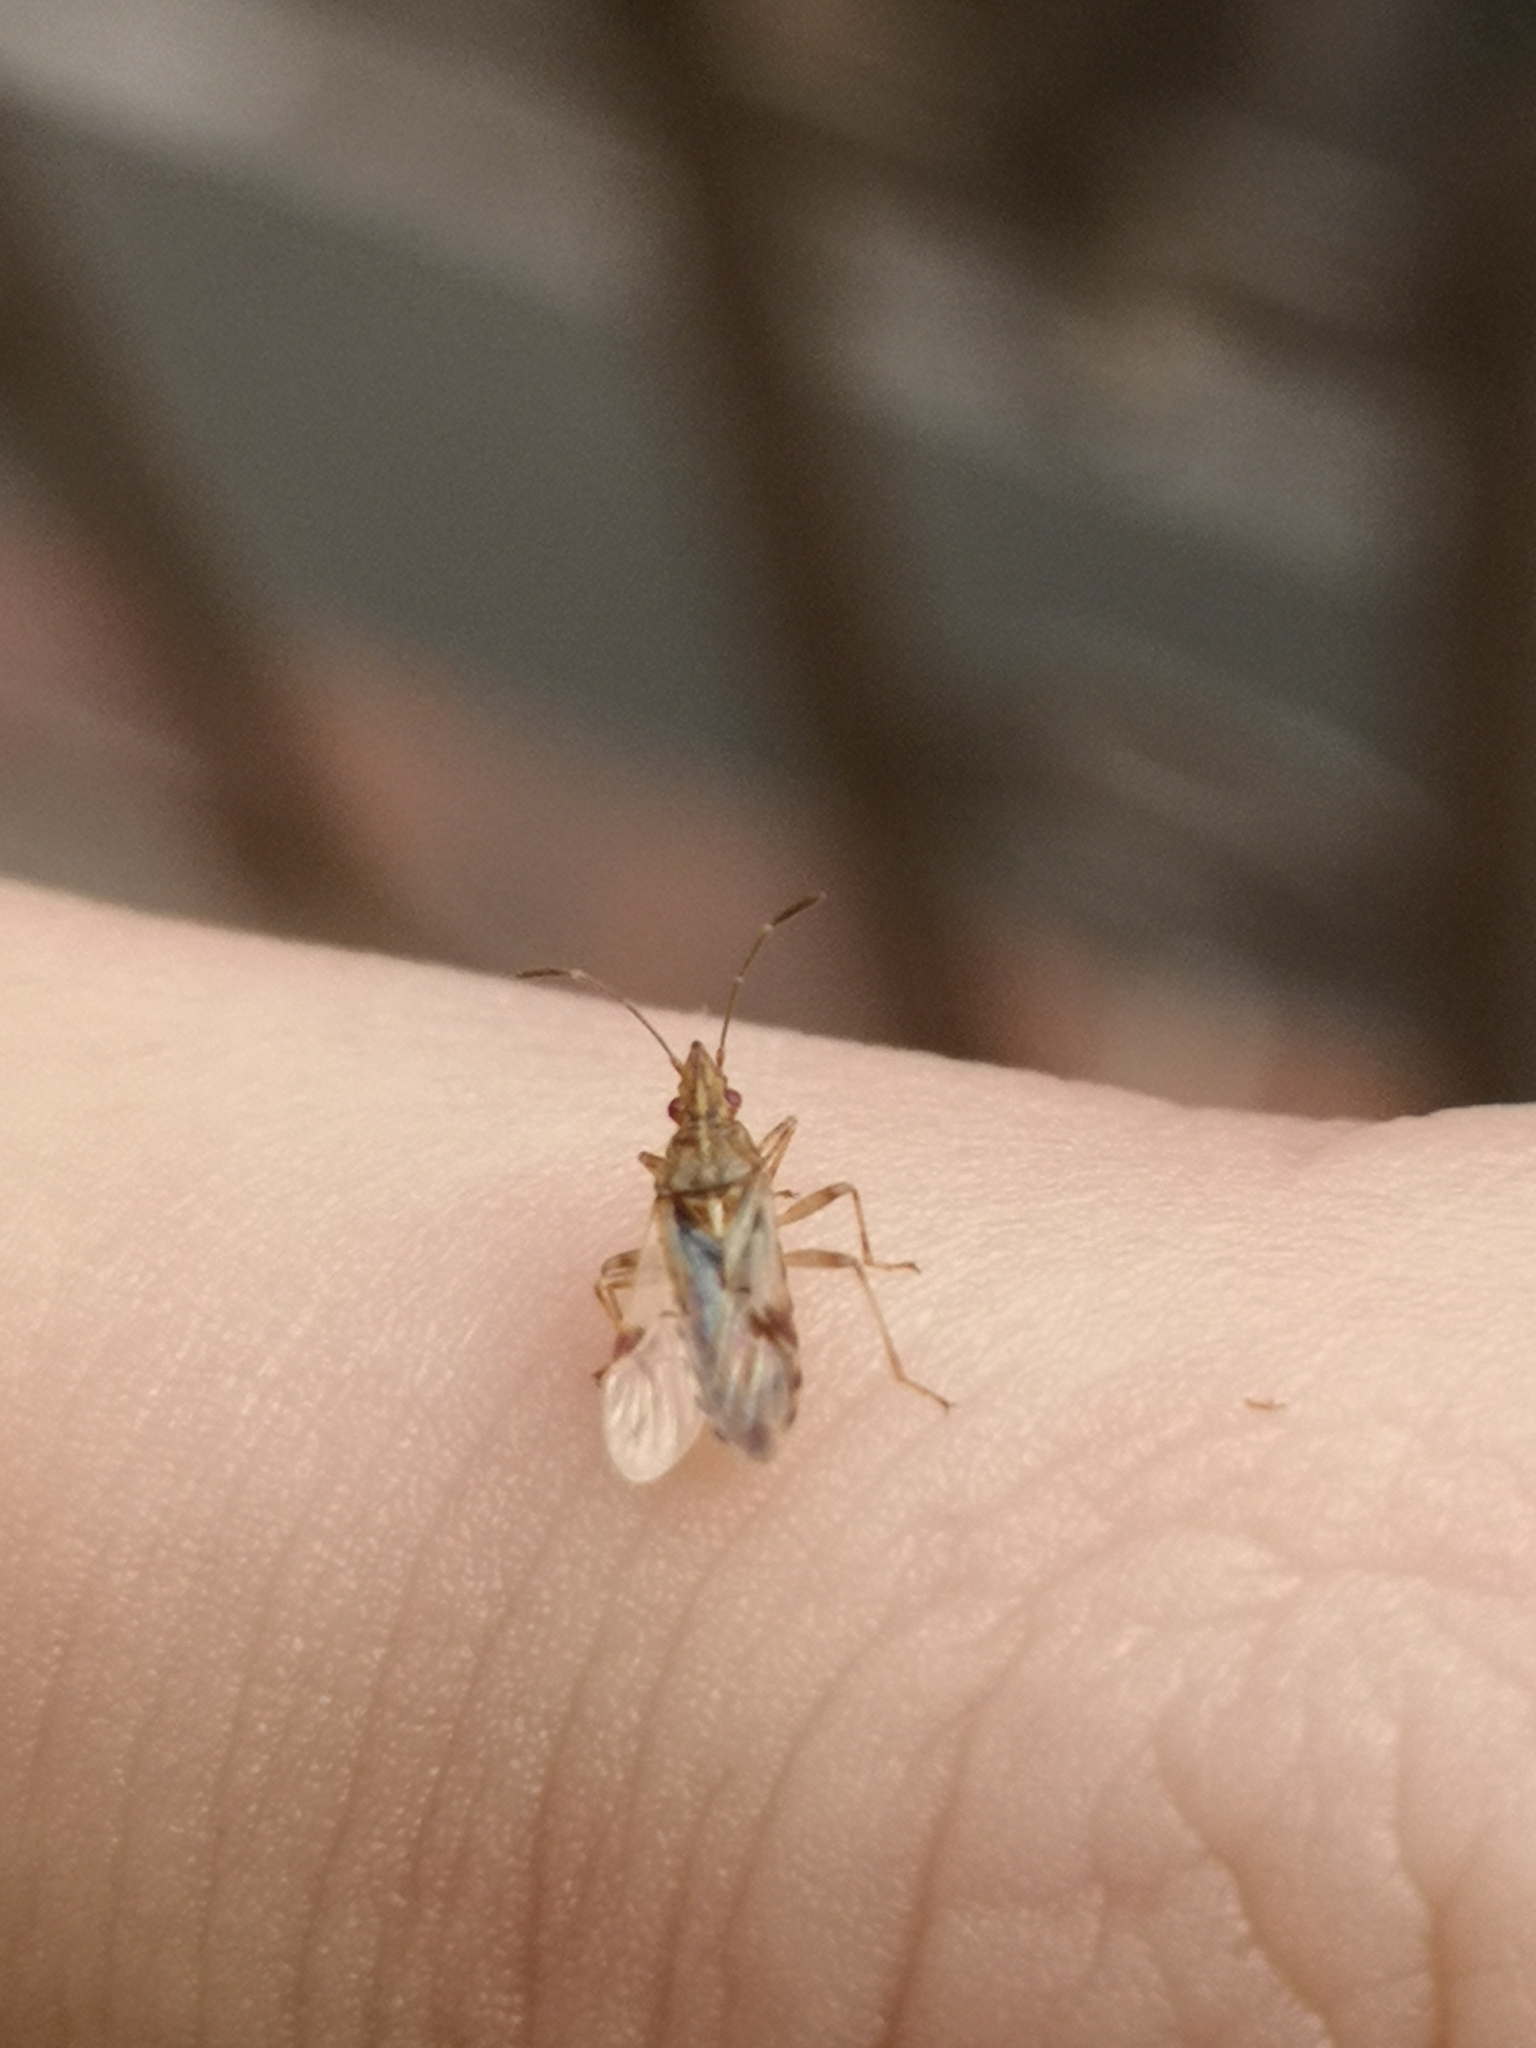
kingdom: Animalia
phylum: Arthropoda
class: Insecta
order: Hemiptera
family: Lygaeidae
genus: Belonochilus
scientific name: Belonochilus numenius
